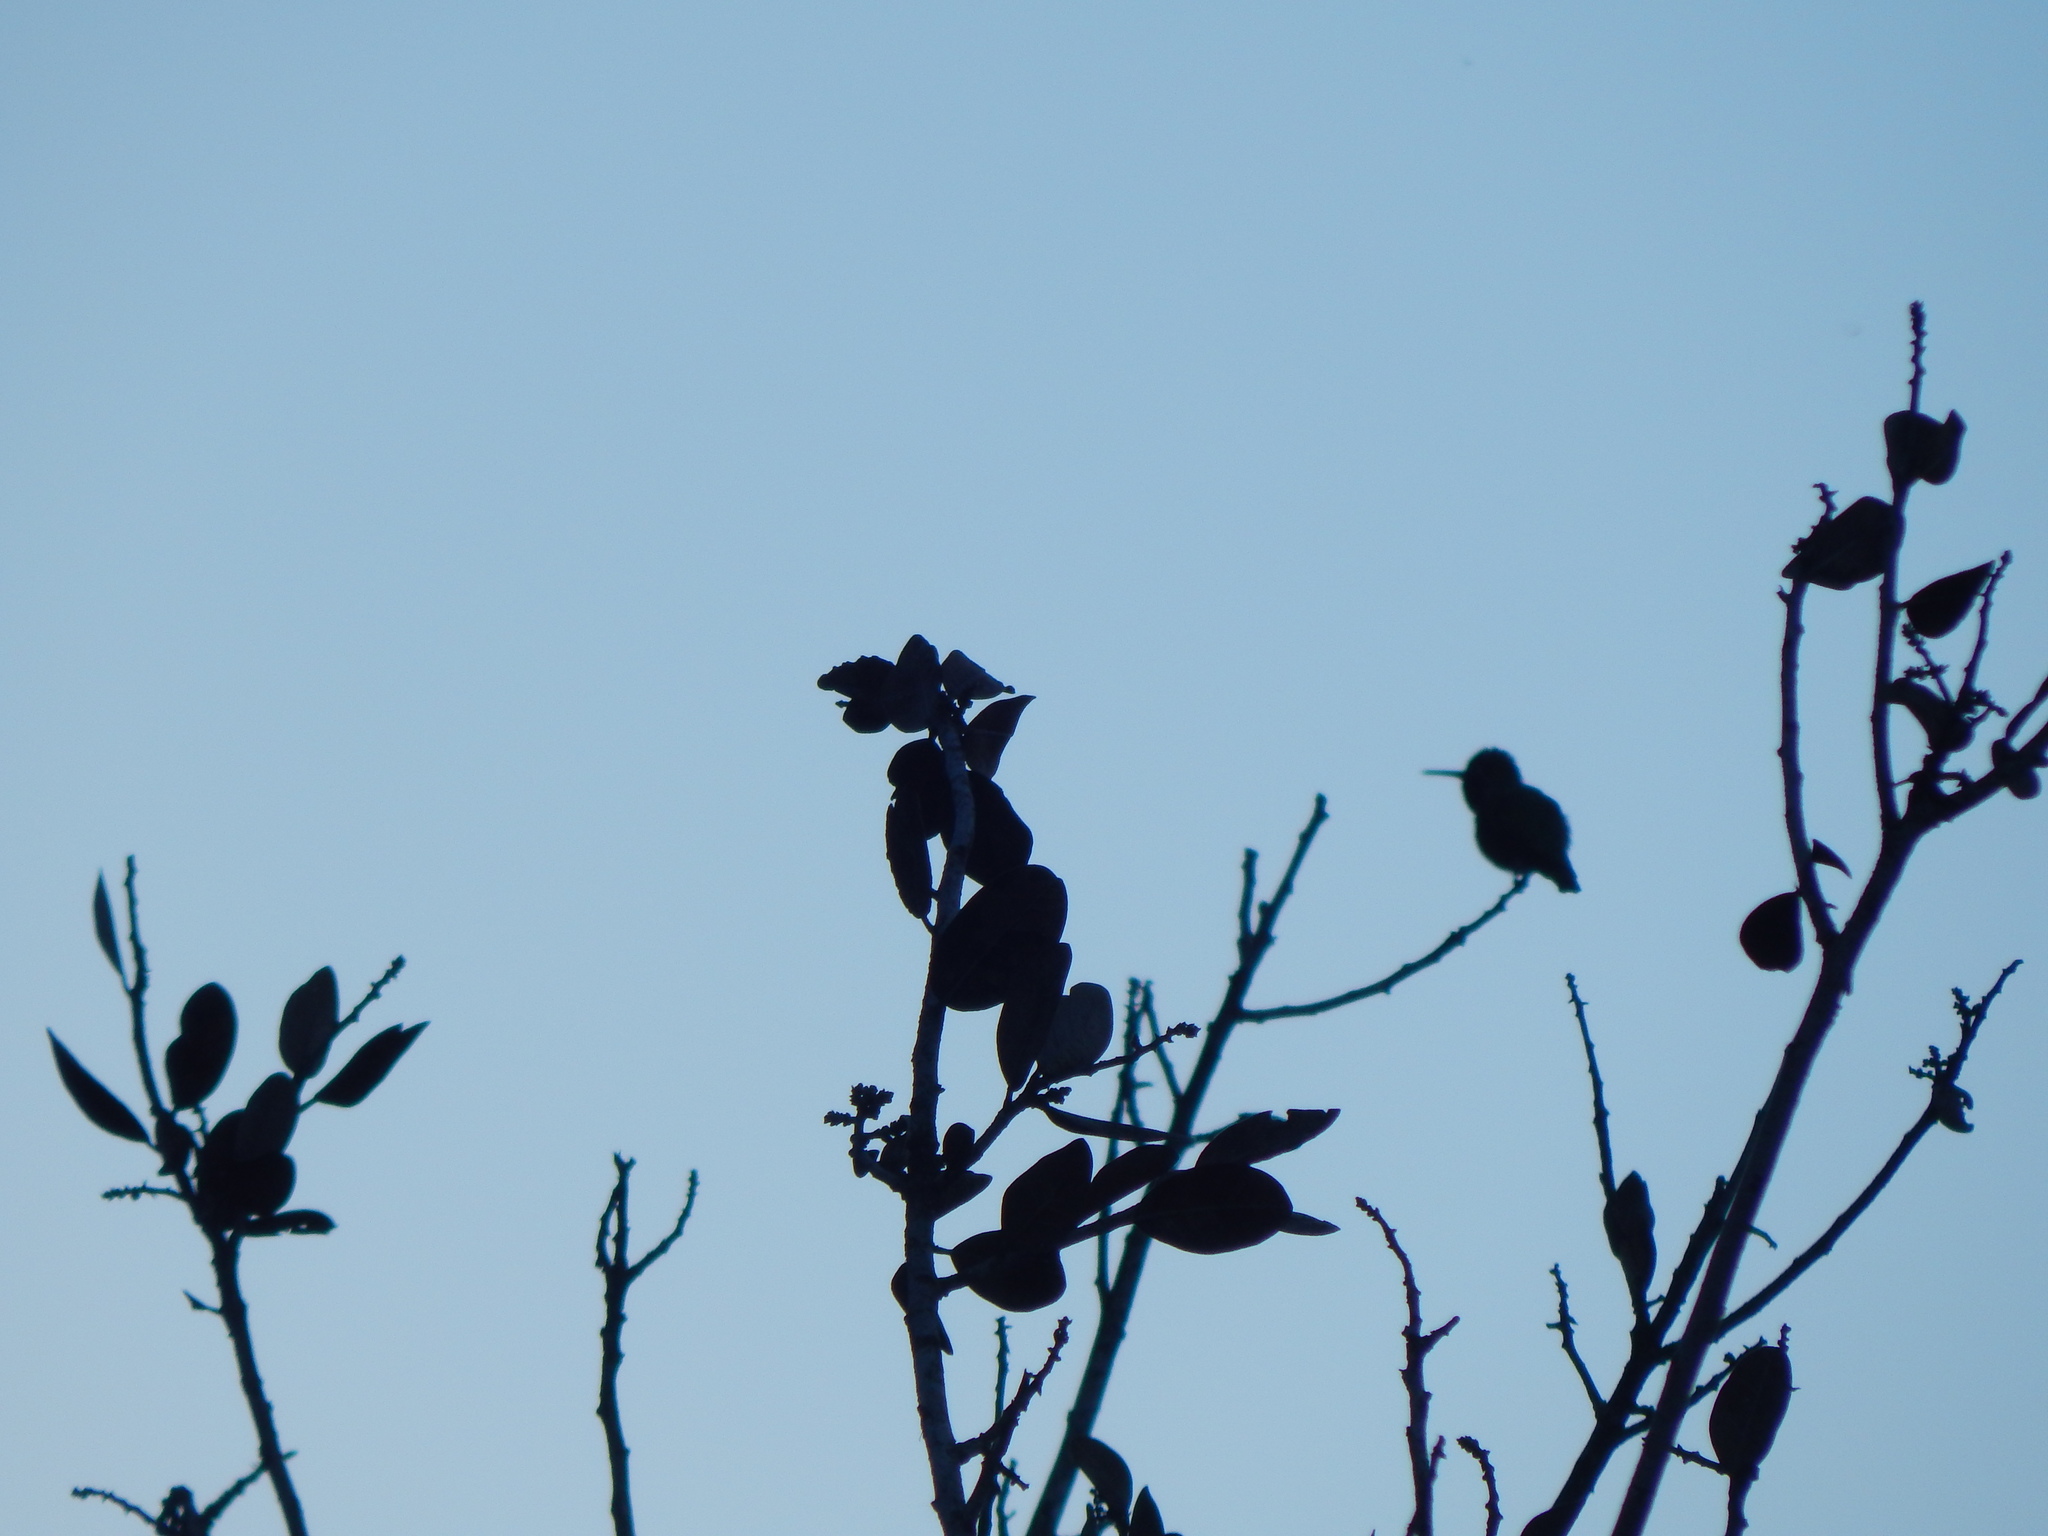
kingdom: Animalia
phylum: Chordata
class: Aves
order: Apodiformes
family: Trochilidae
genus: Calypte
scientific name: Calypte anna
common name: Anna's hummingbird
